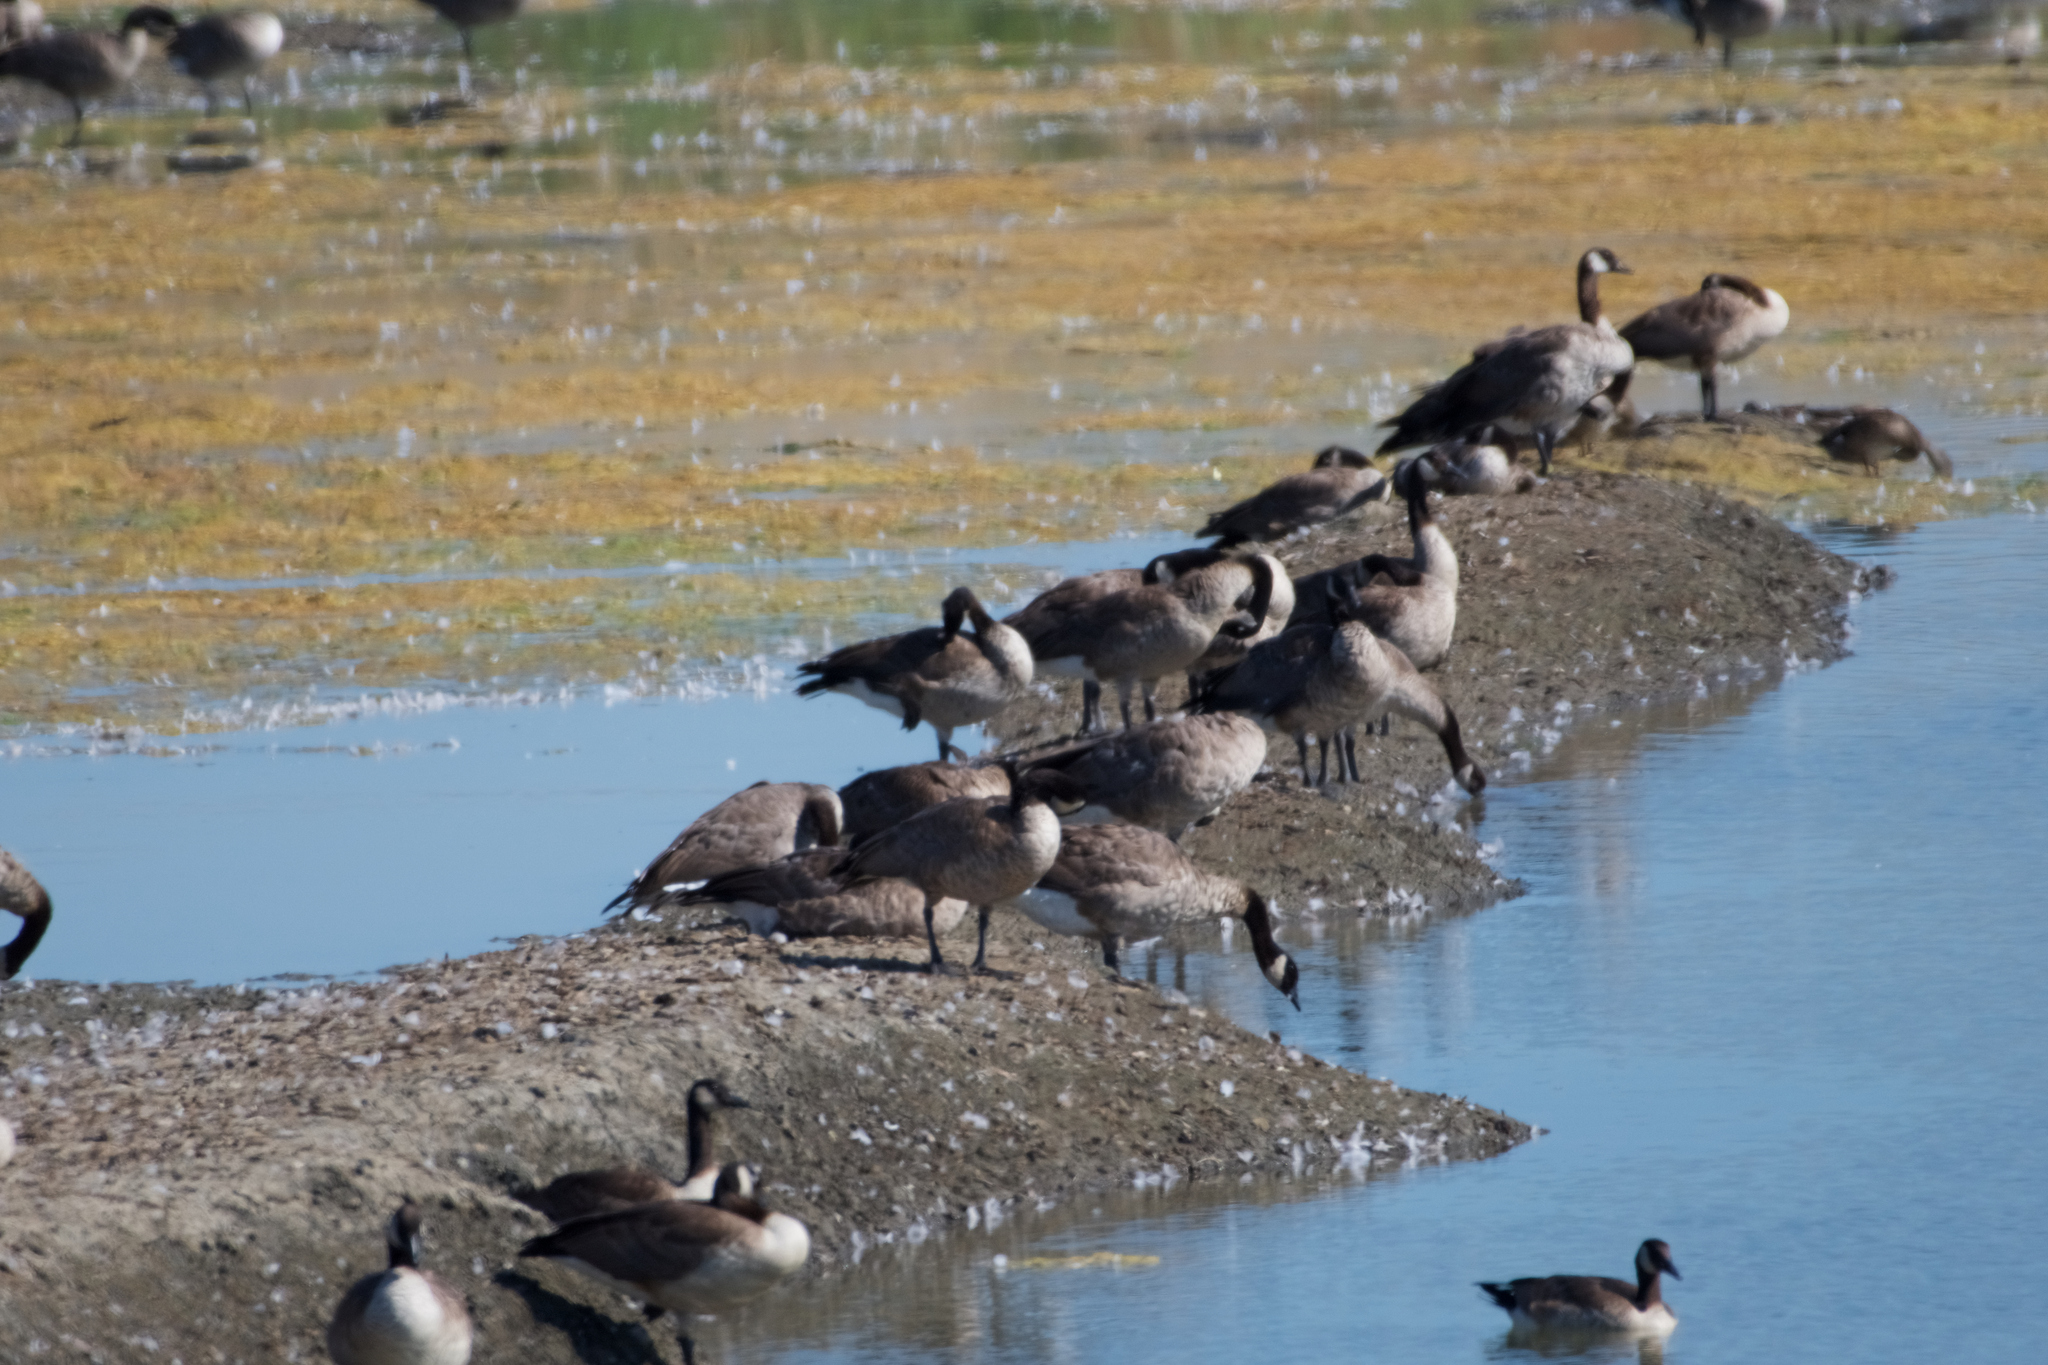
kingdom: Animalia
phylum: Chordata
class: Aves
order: Anseriformes
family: Anatidae
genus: Branta
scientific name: Branta canadensis
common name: Canada goose
